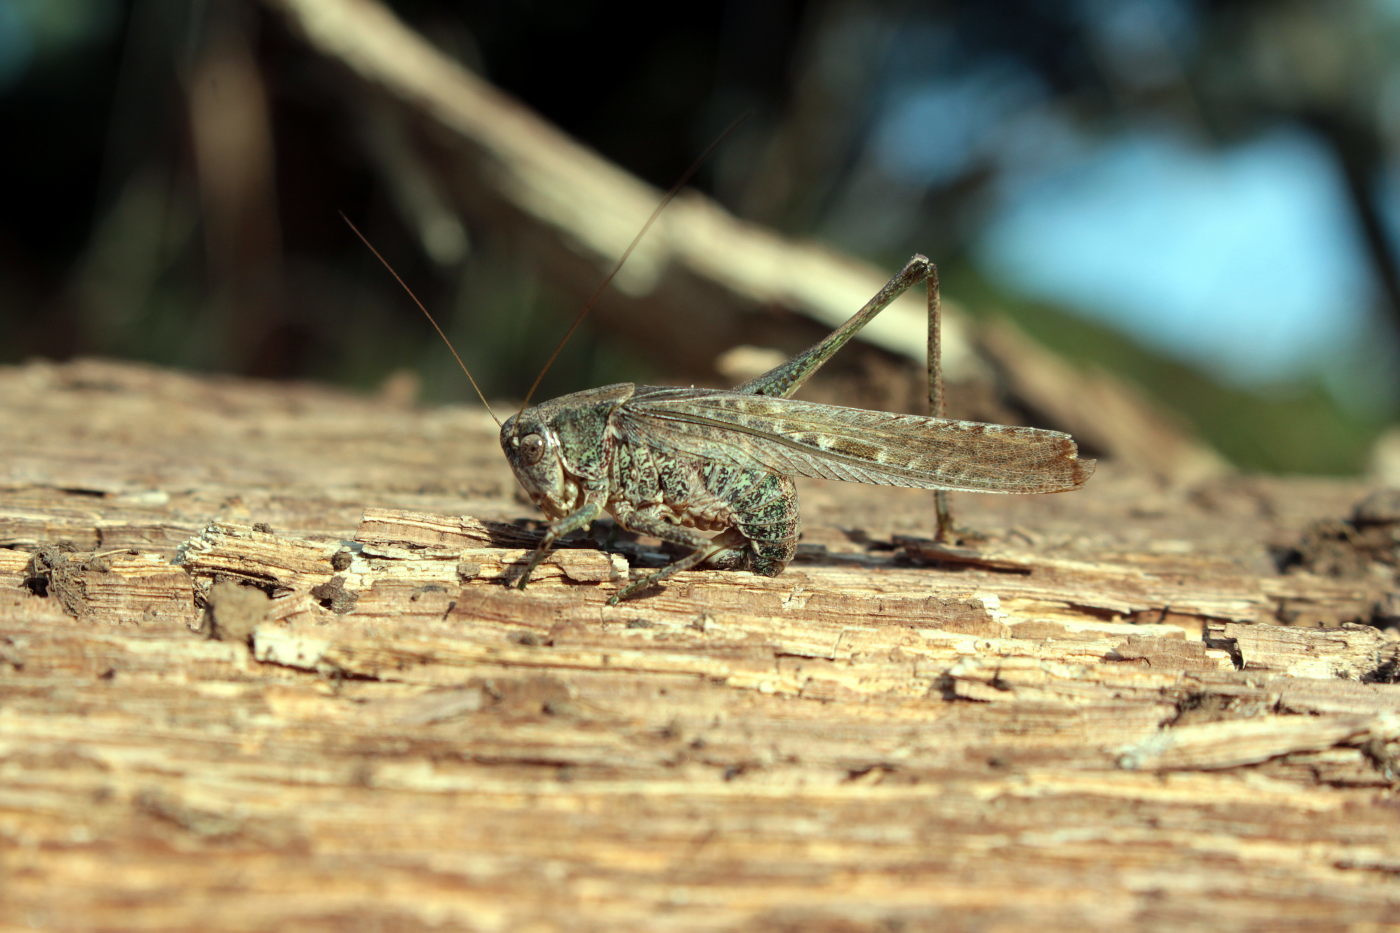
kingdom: Animalia
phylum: Arthropoda
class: Insecta
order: Orthoptera
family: Tettigoniidae
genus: Platycleis
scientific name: Platycleis grisea
